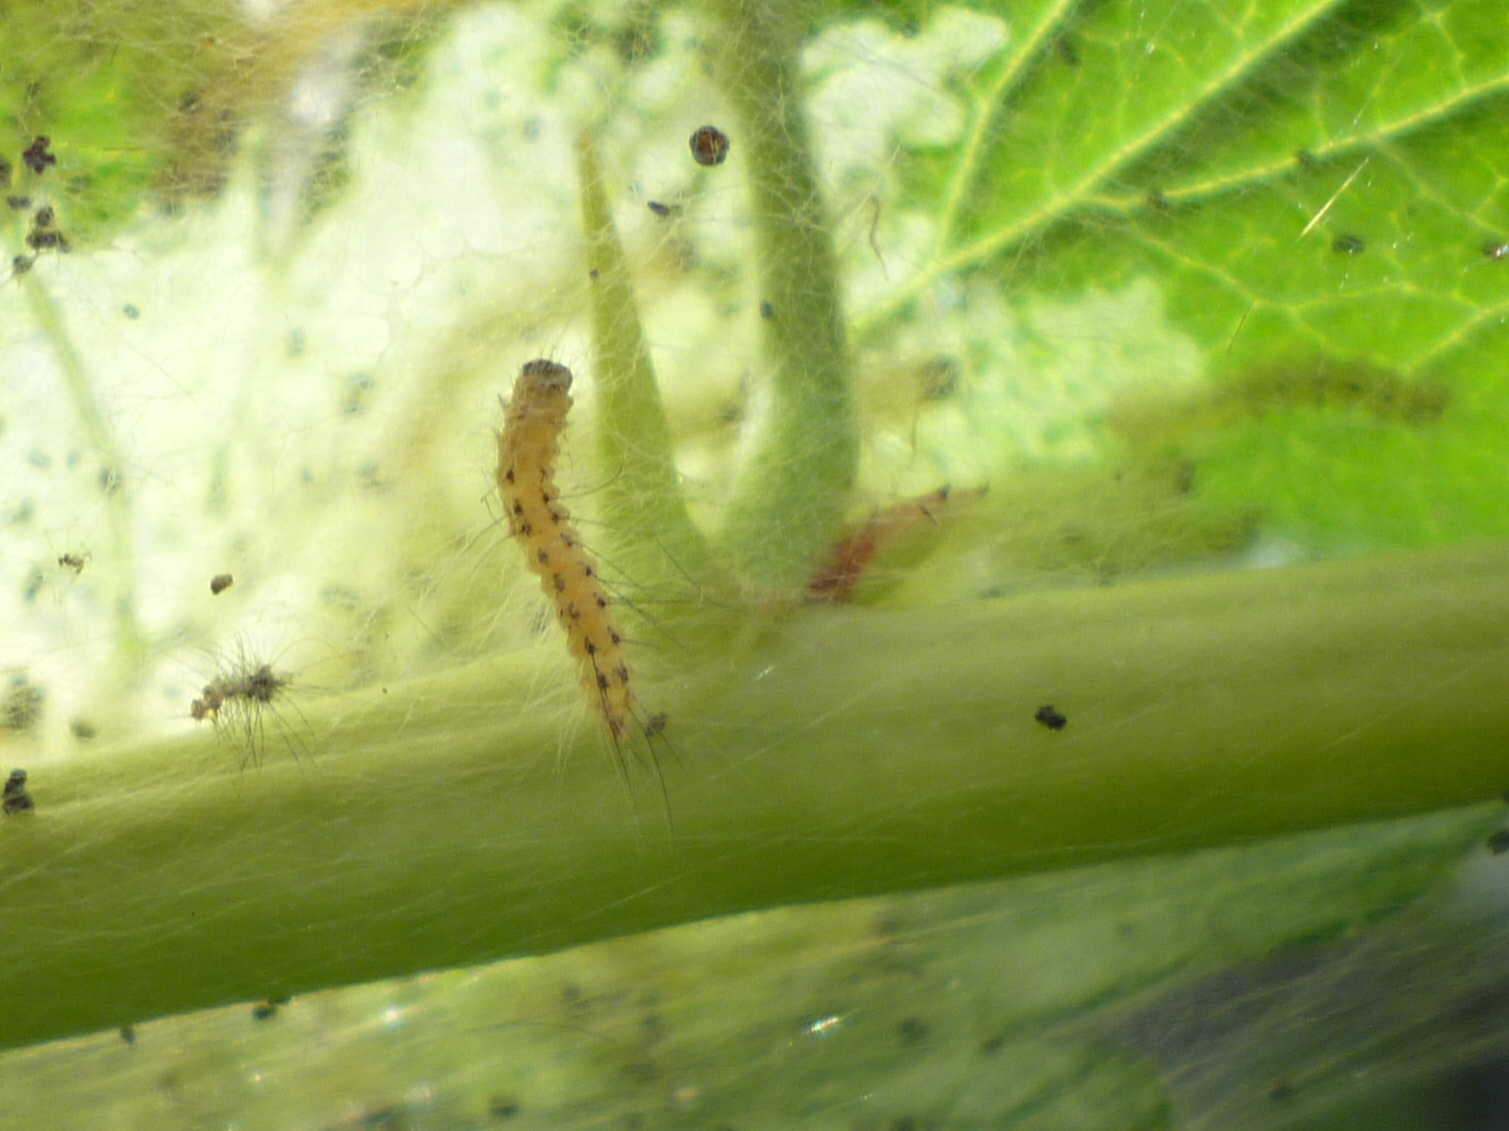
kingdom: Animalia
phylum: Arthropoda
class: Insecta
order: Lepidoptera
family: Erebidae
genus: Hyphantria
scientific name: Hyphantria cunea
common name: American white moth
